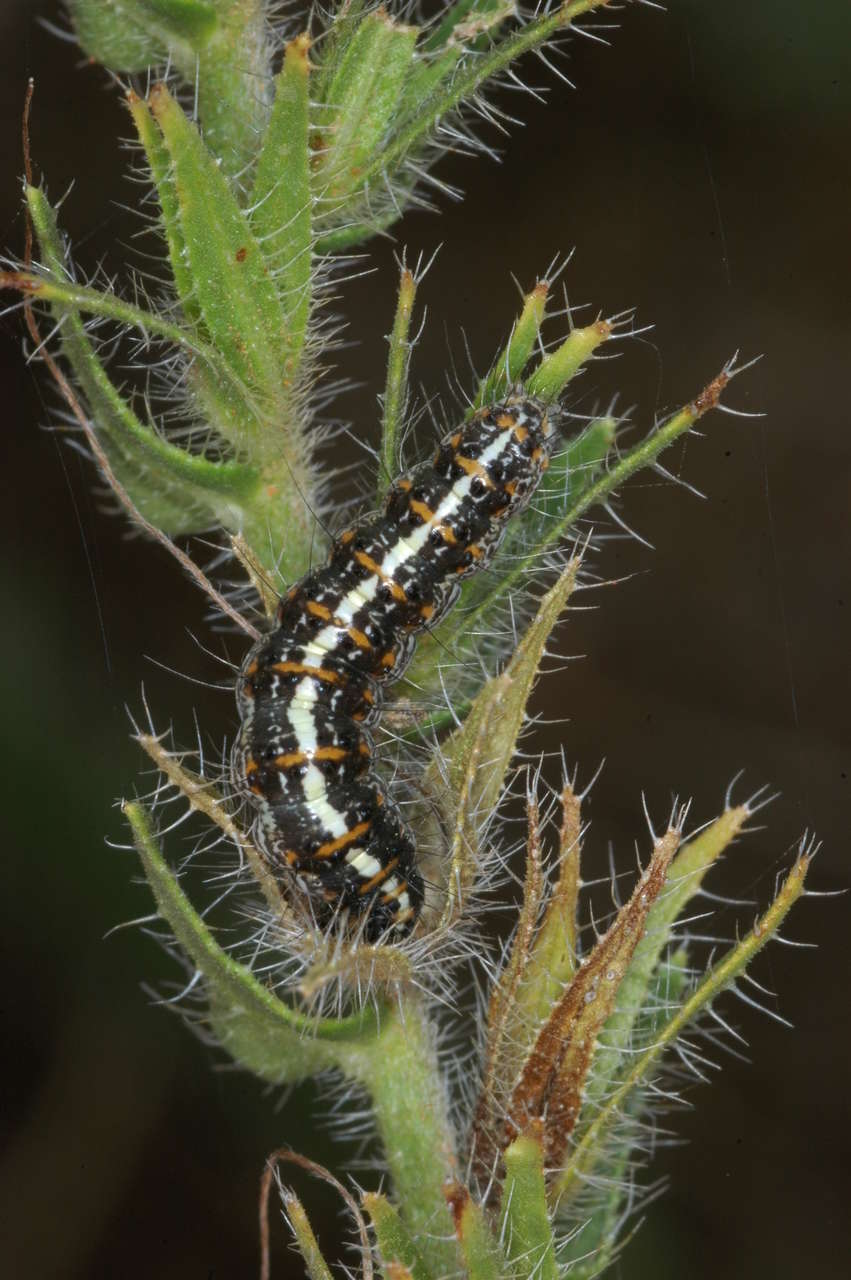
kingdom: Animalia
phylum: Arthropoda
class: Insecta
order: Lepidoptera
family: Erebidae
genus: Utetheisa
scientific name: Utetheisa pulchelloides
